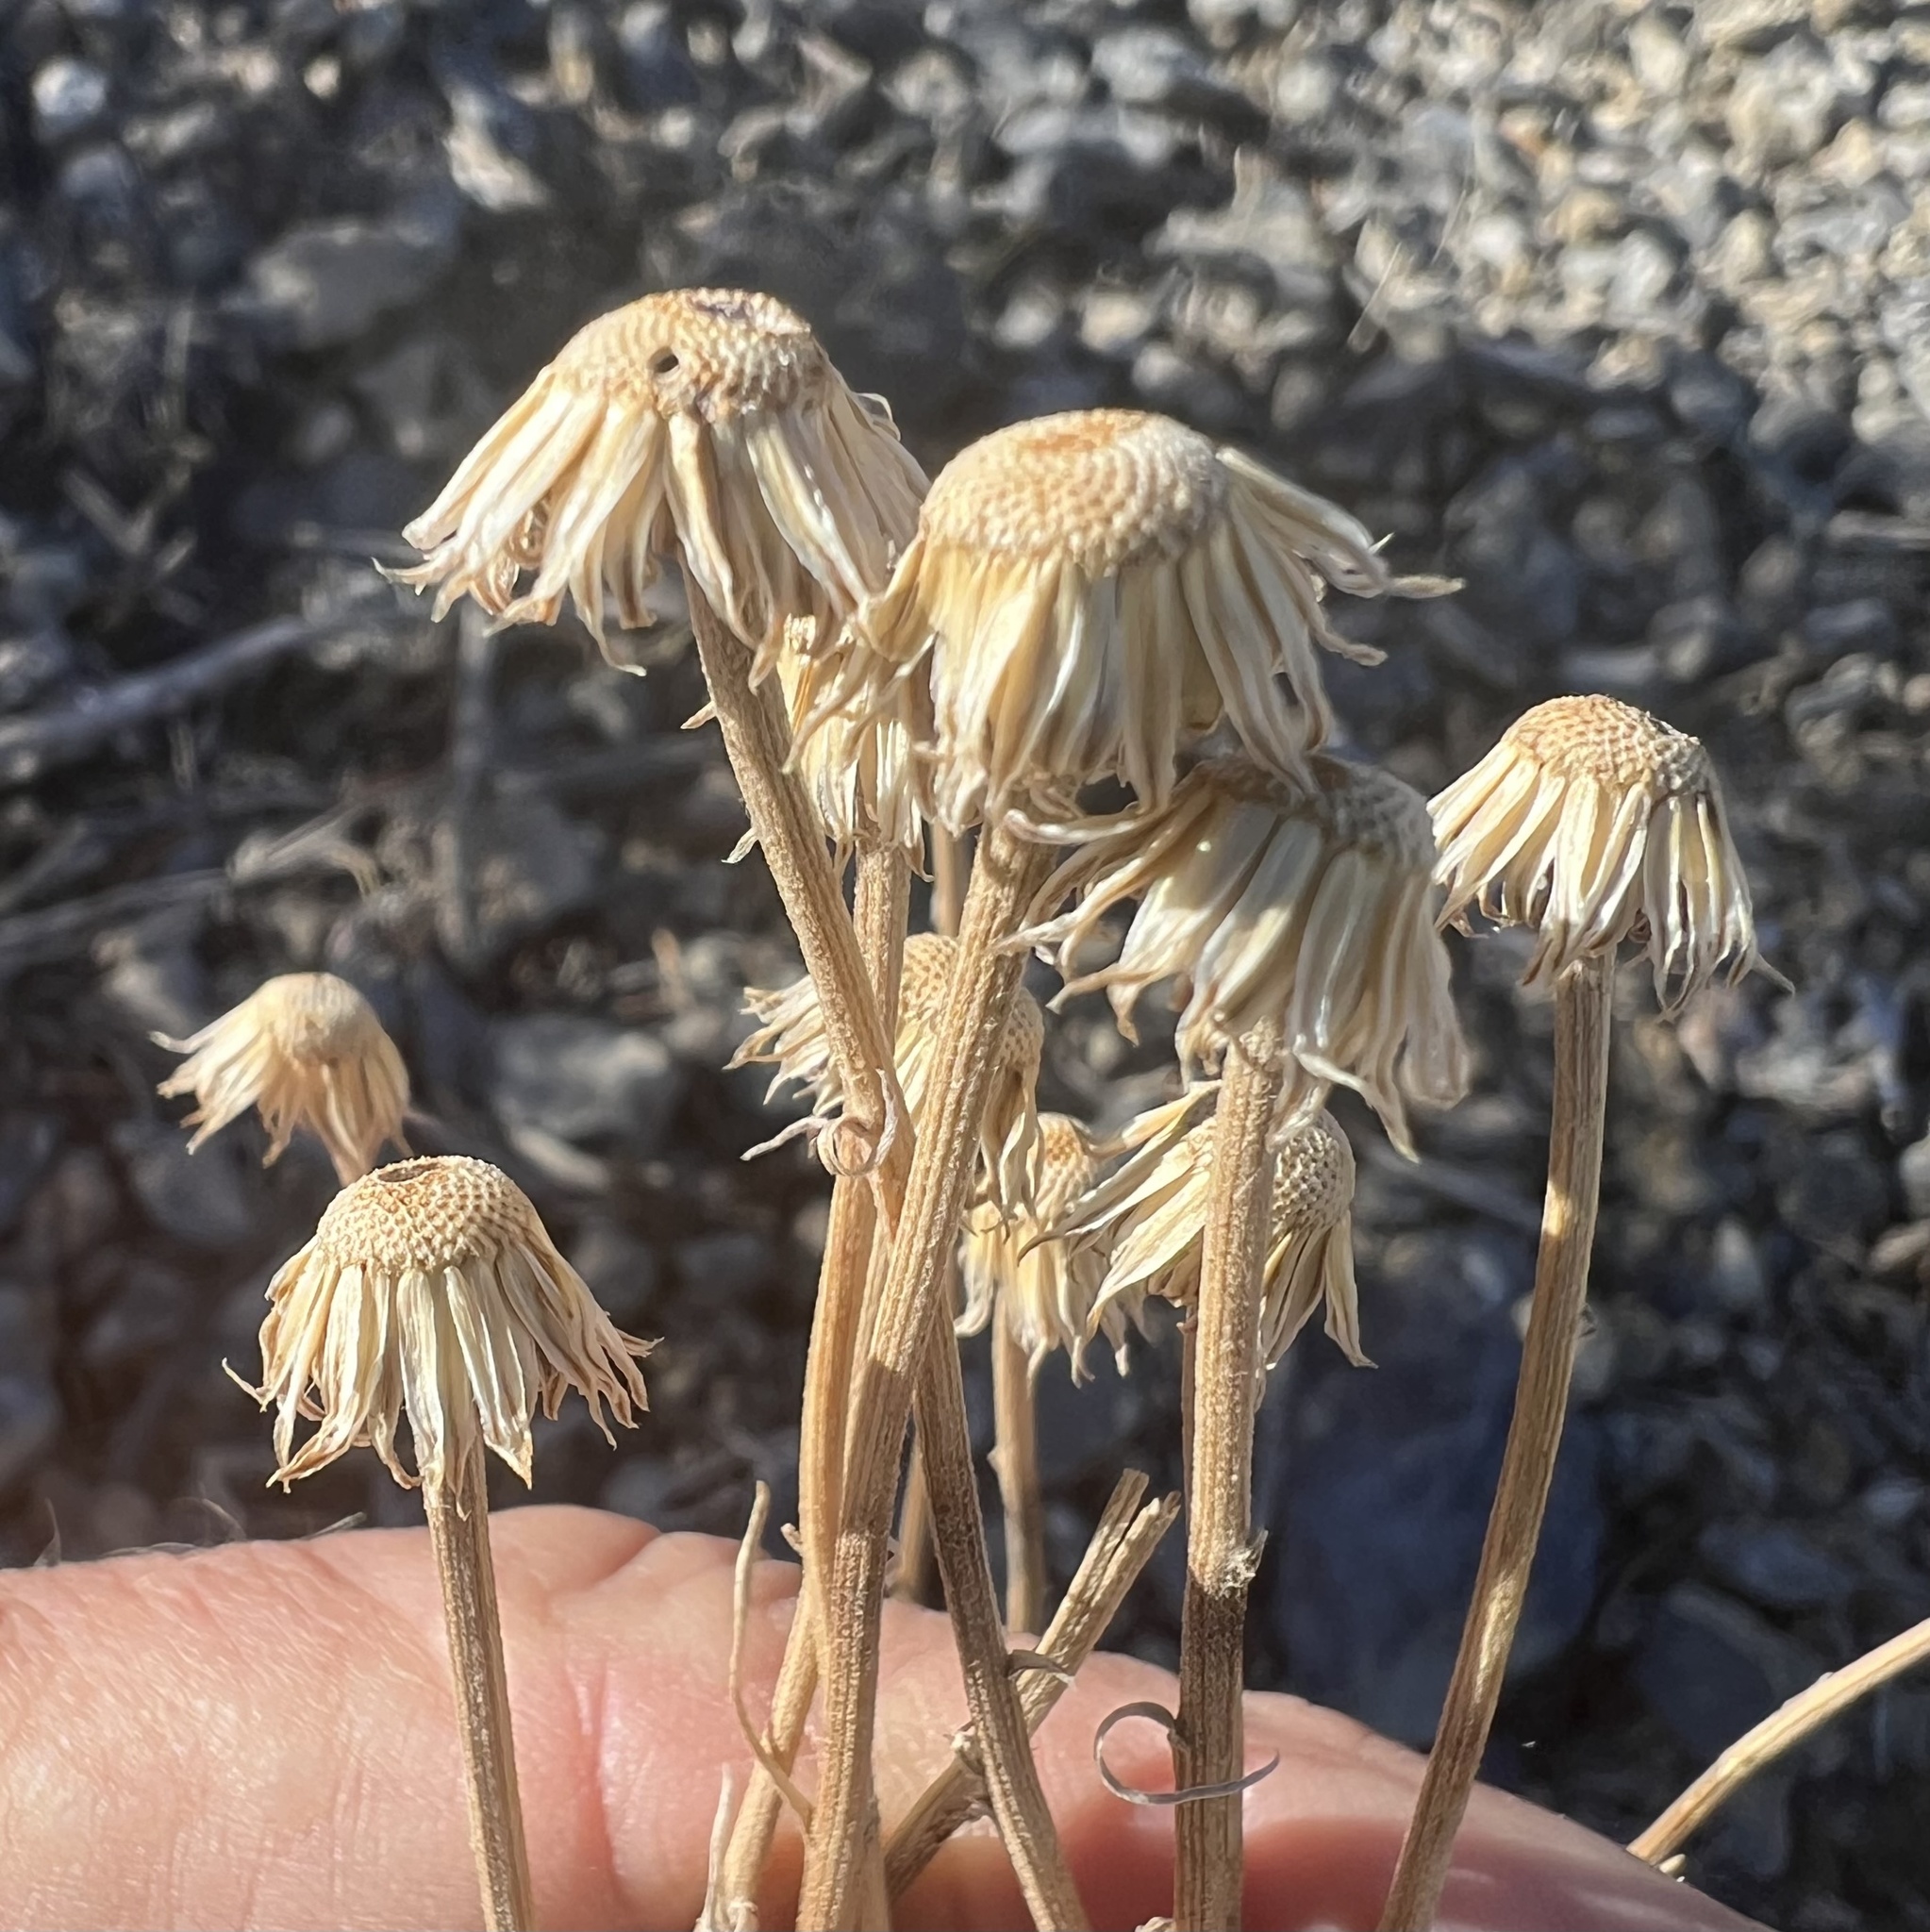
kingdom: Plantae
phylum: Tracheophyta
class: Magnoliopsida
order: Asterales
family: Asteraceae
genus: Erigeron
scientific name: Erigeron argentatus
